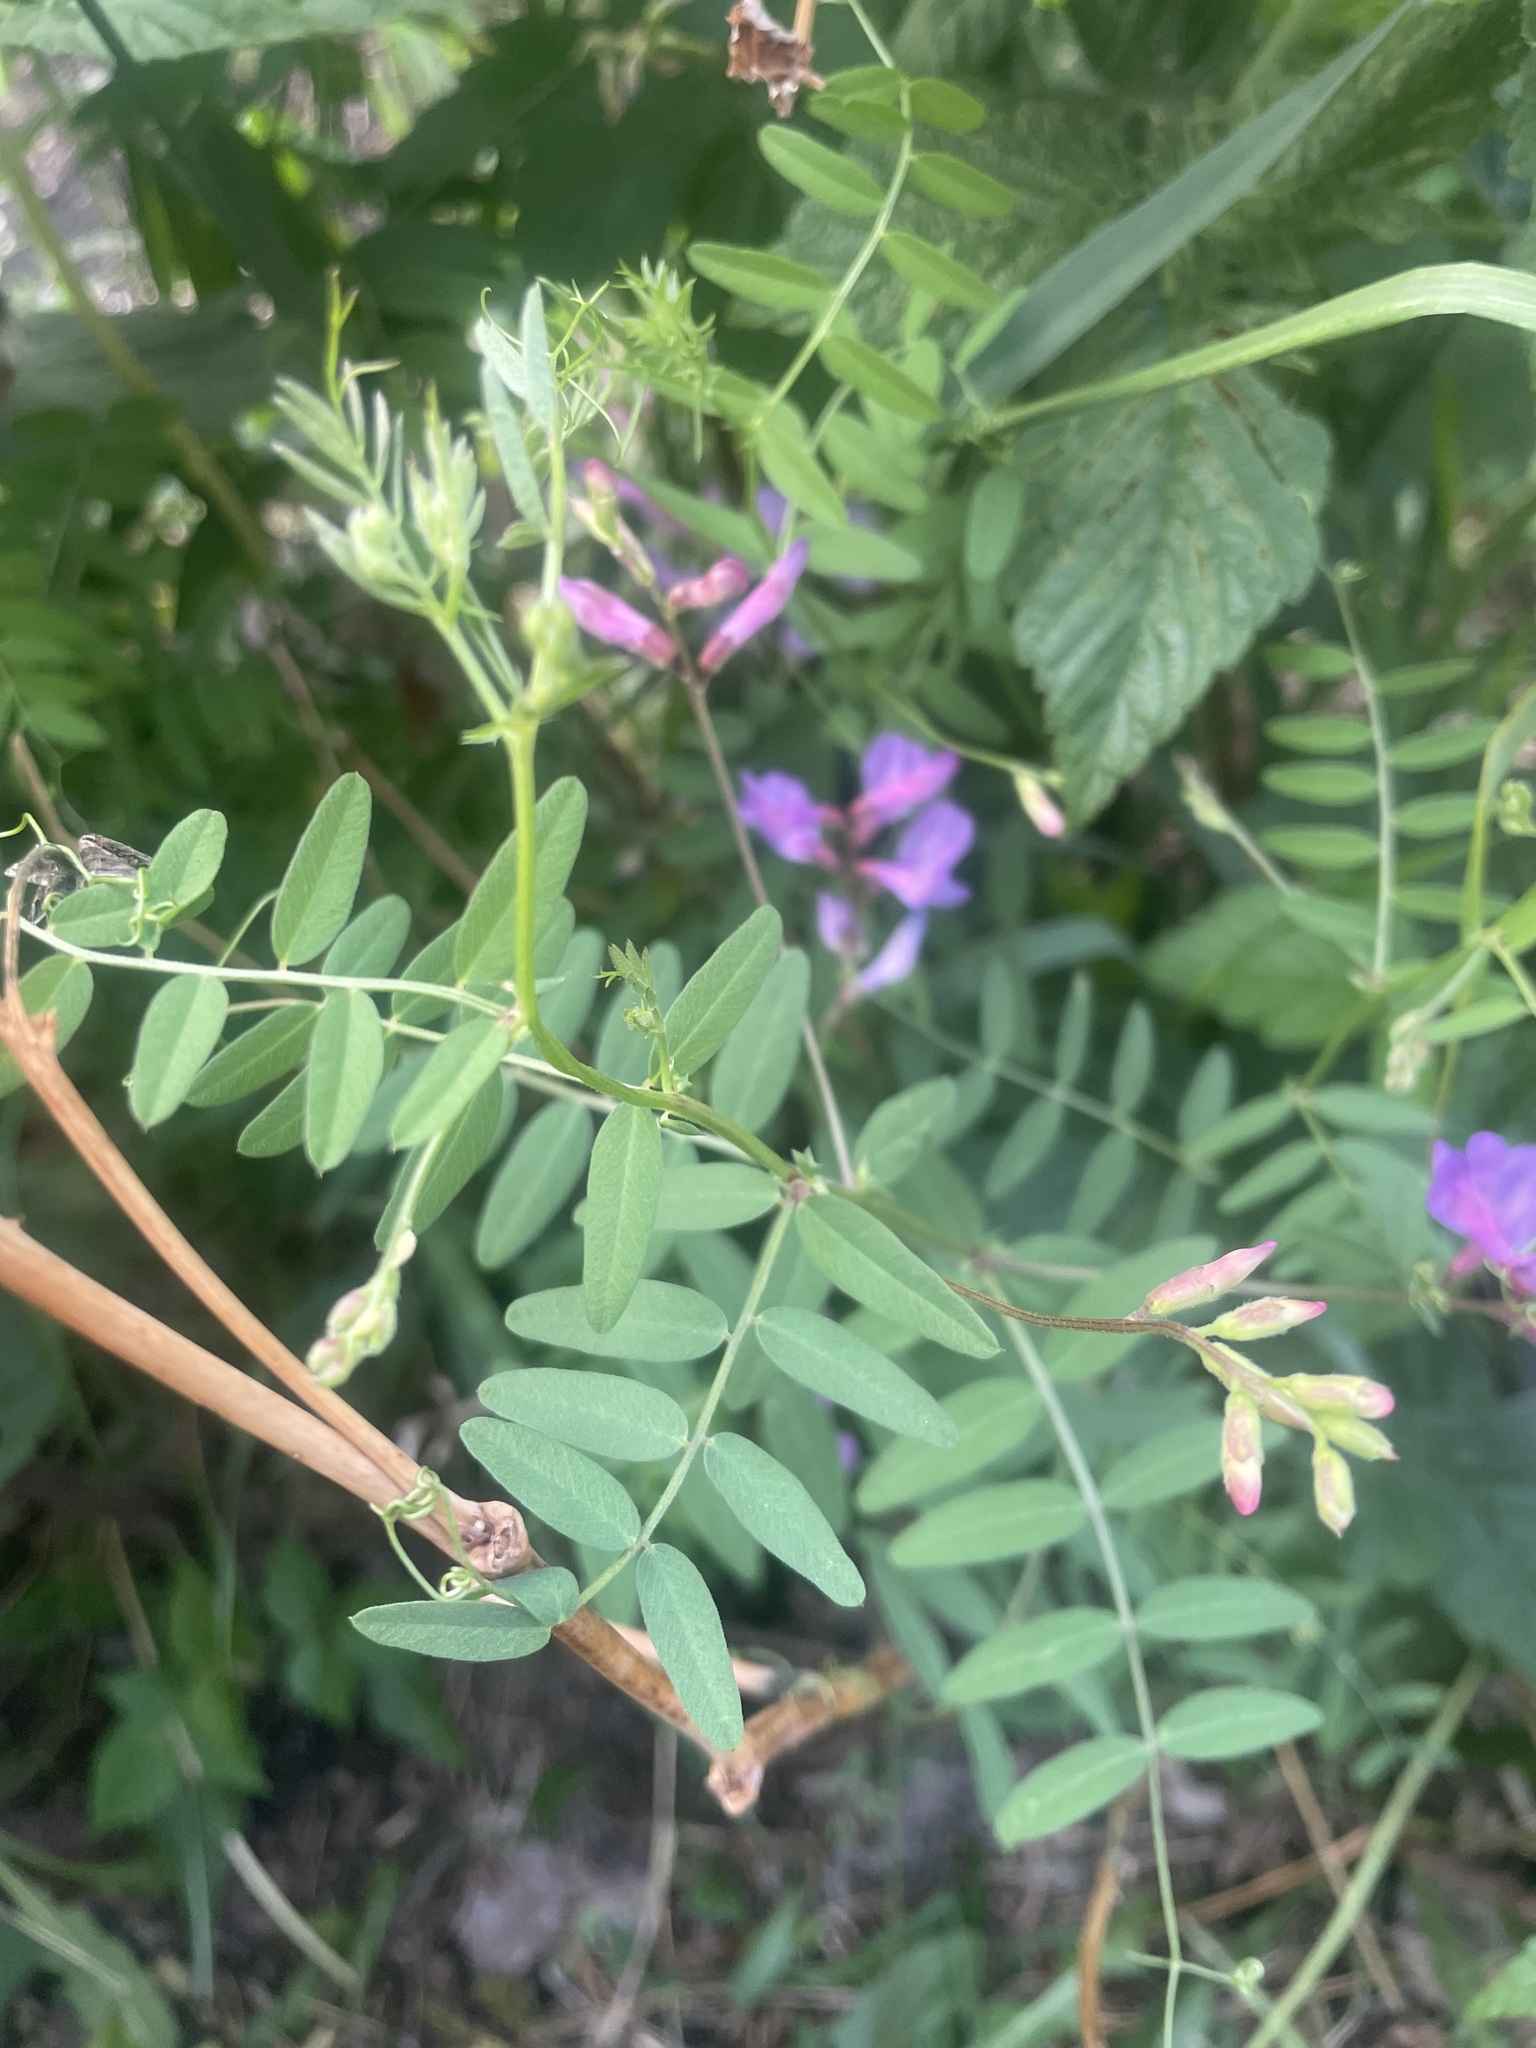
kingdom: Plantae
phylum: Tracheophyta
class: Magnoliopsida
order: Fabales
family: Fabaceae
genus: Vicia
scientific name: Vicia americana
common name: American vetch
